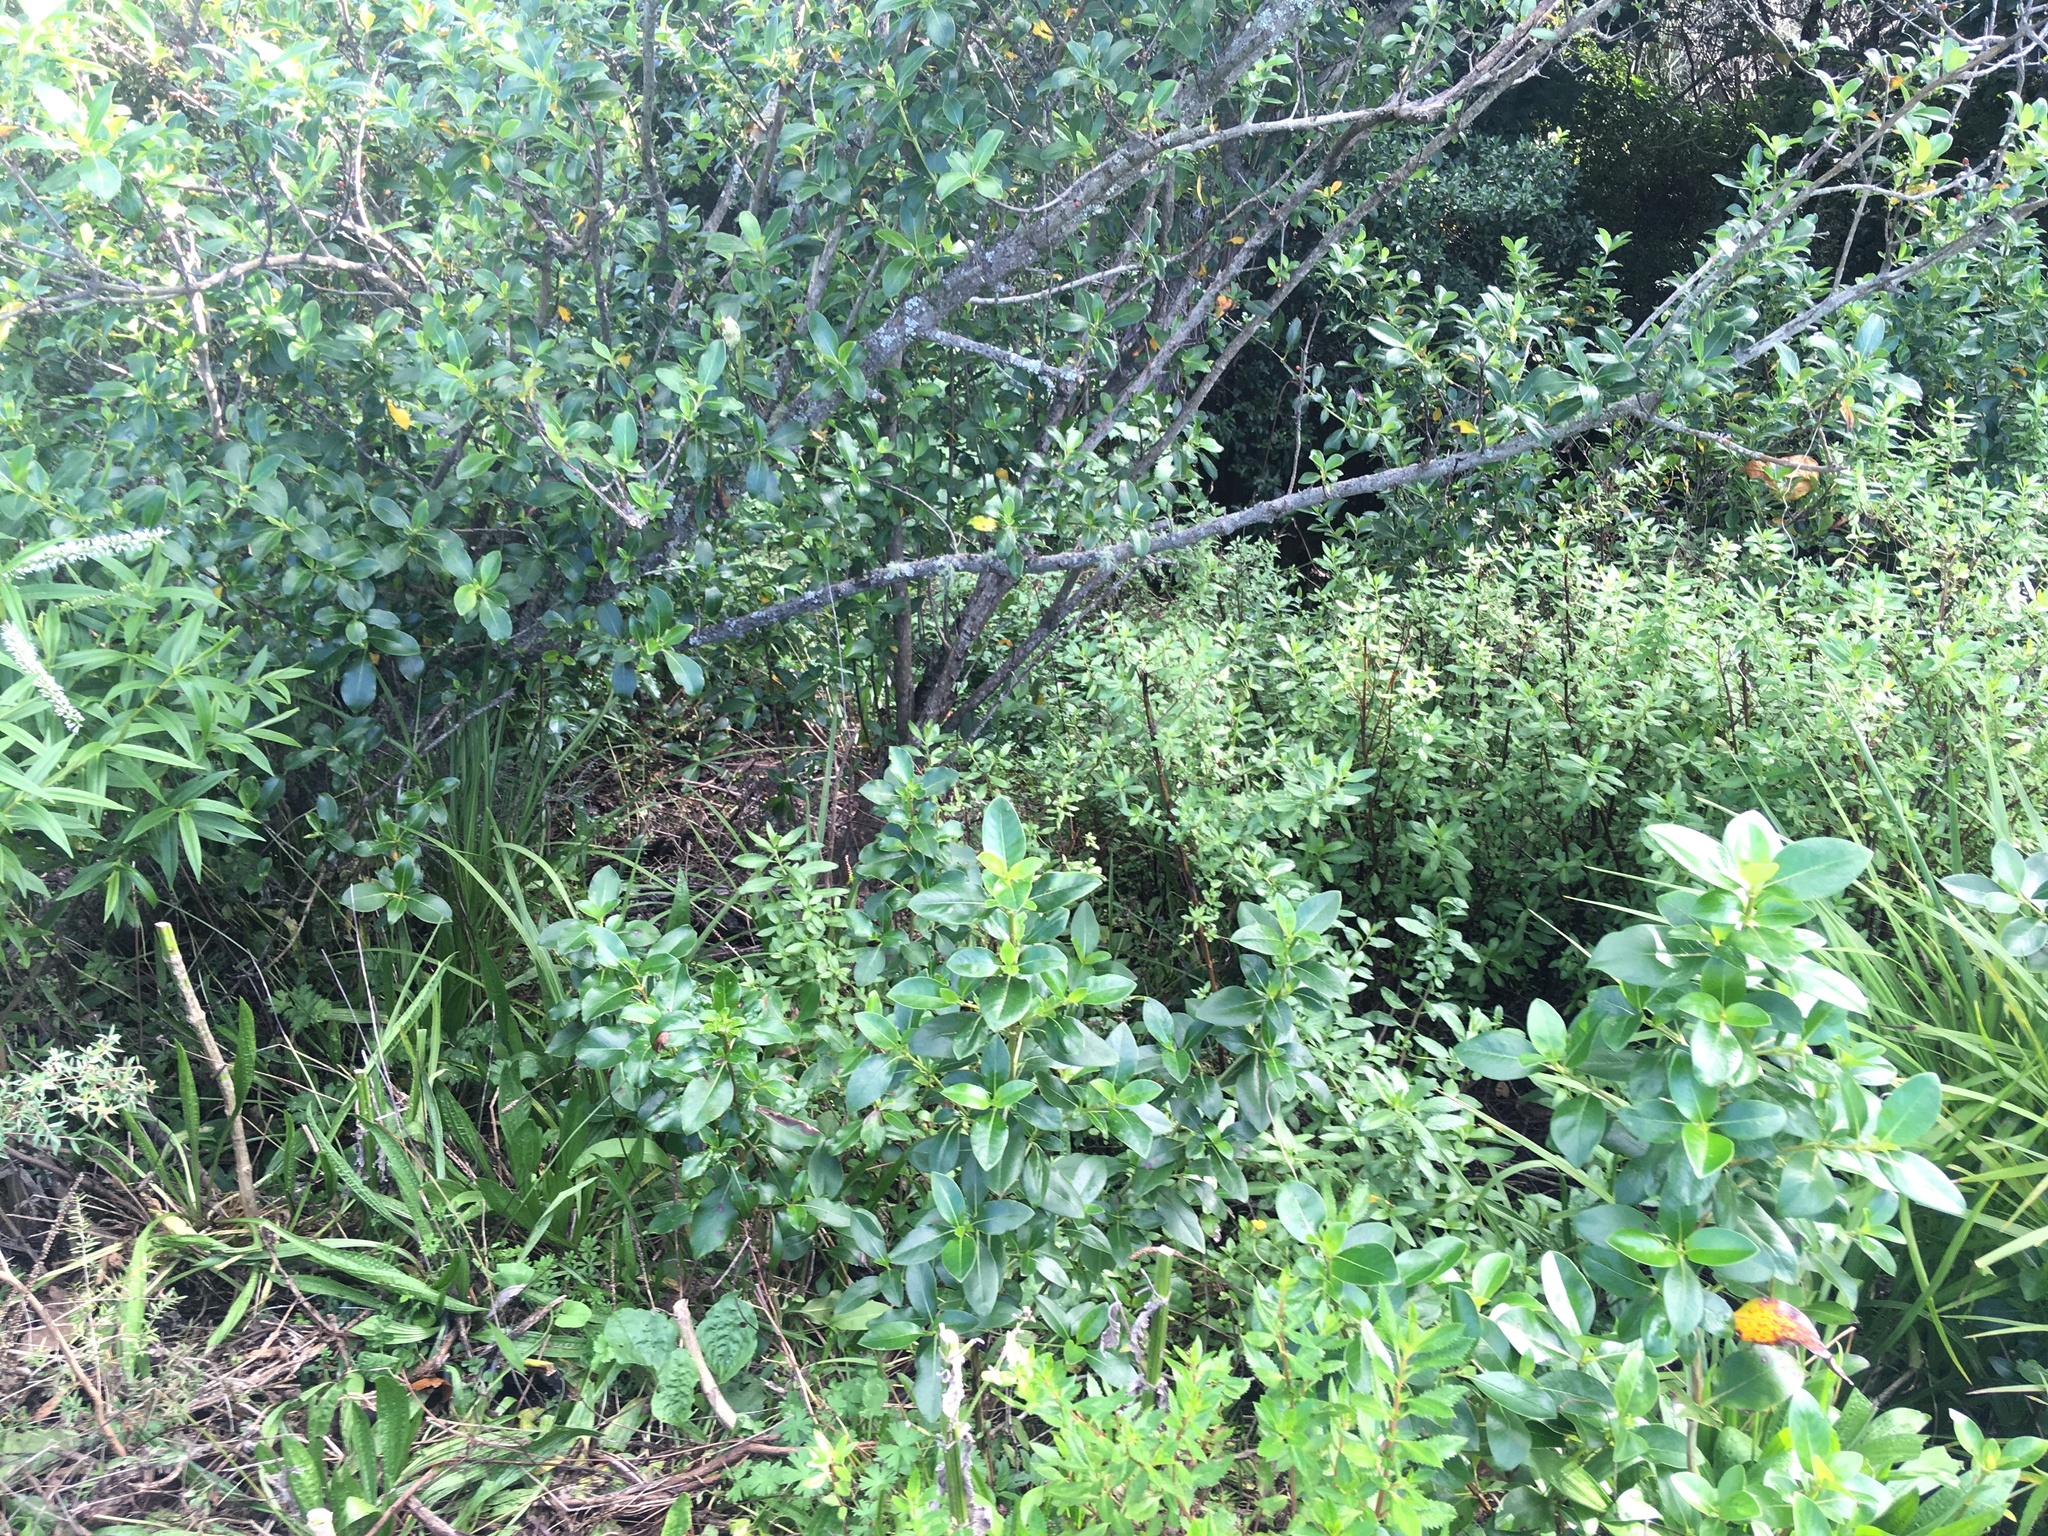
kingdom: Plantae
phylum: Tracheophyta
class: Magnoliopsida
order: Gentianales
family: Rubiaceae
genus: Coprosma
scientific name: Coprosma robusta
